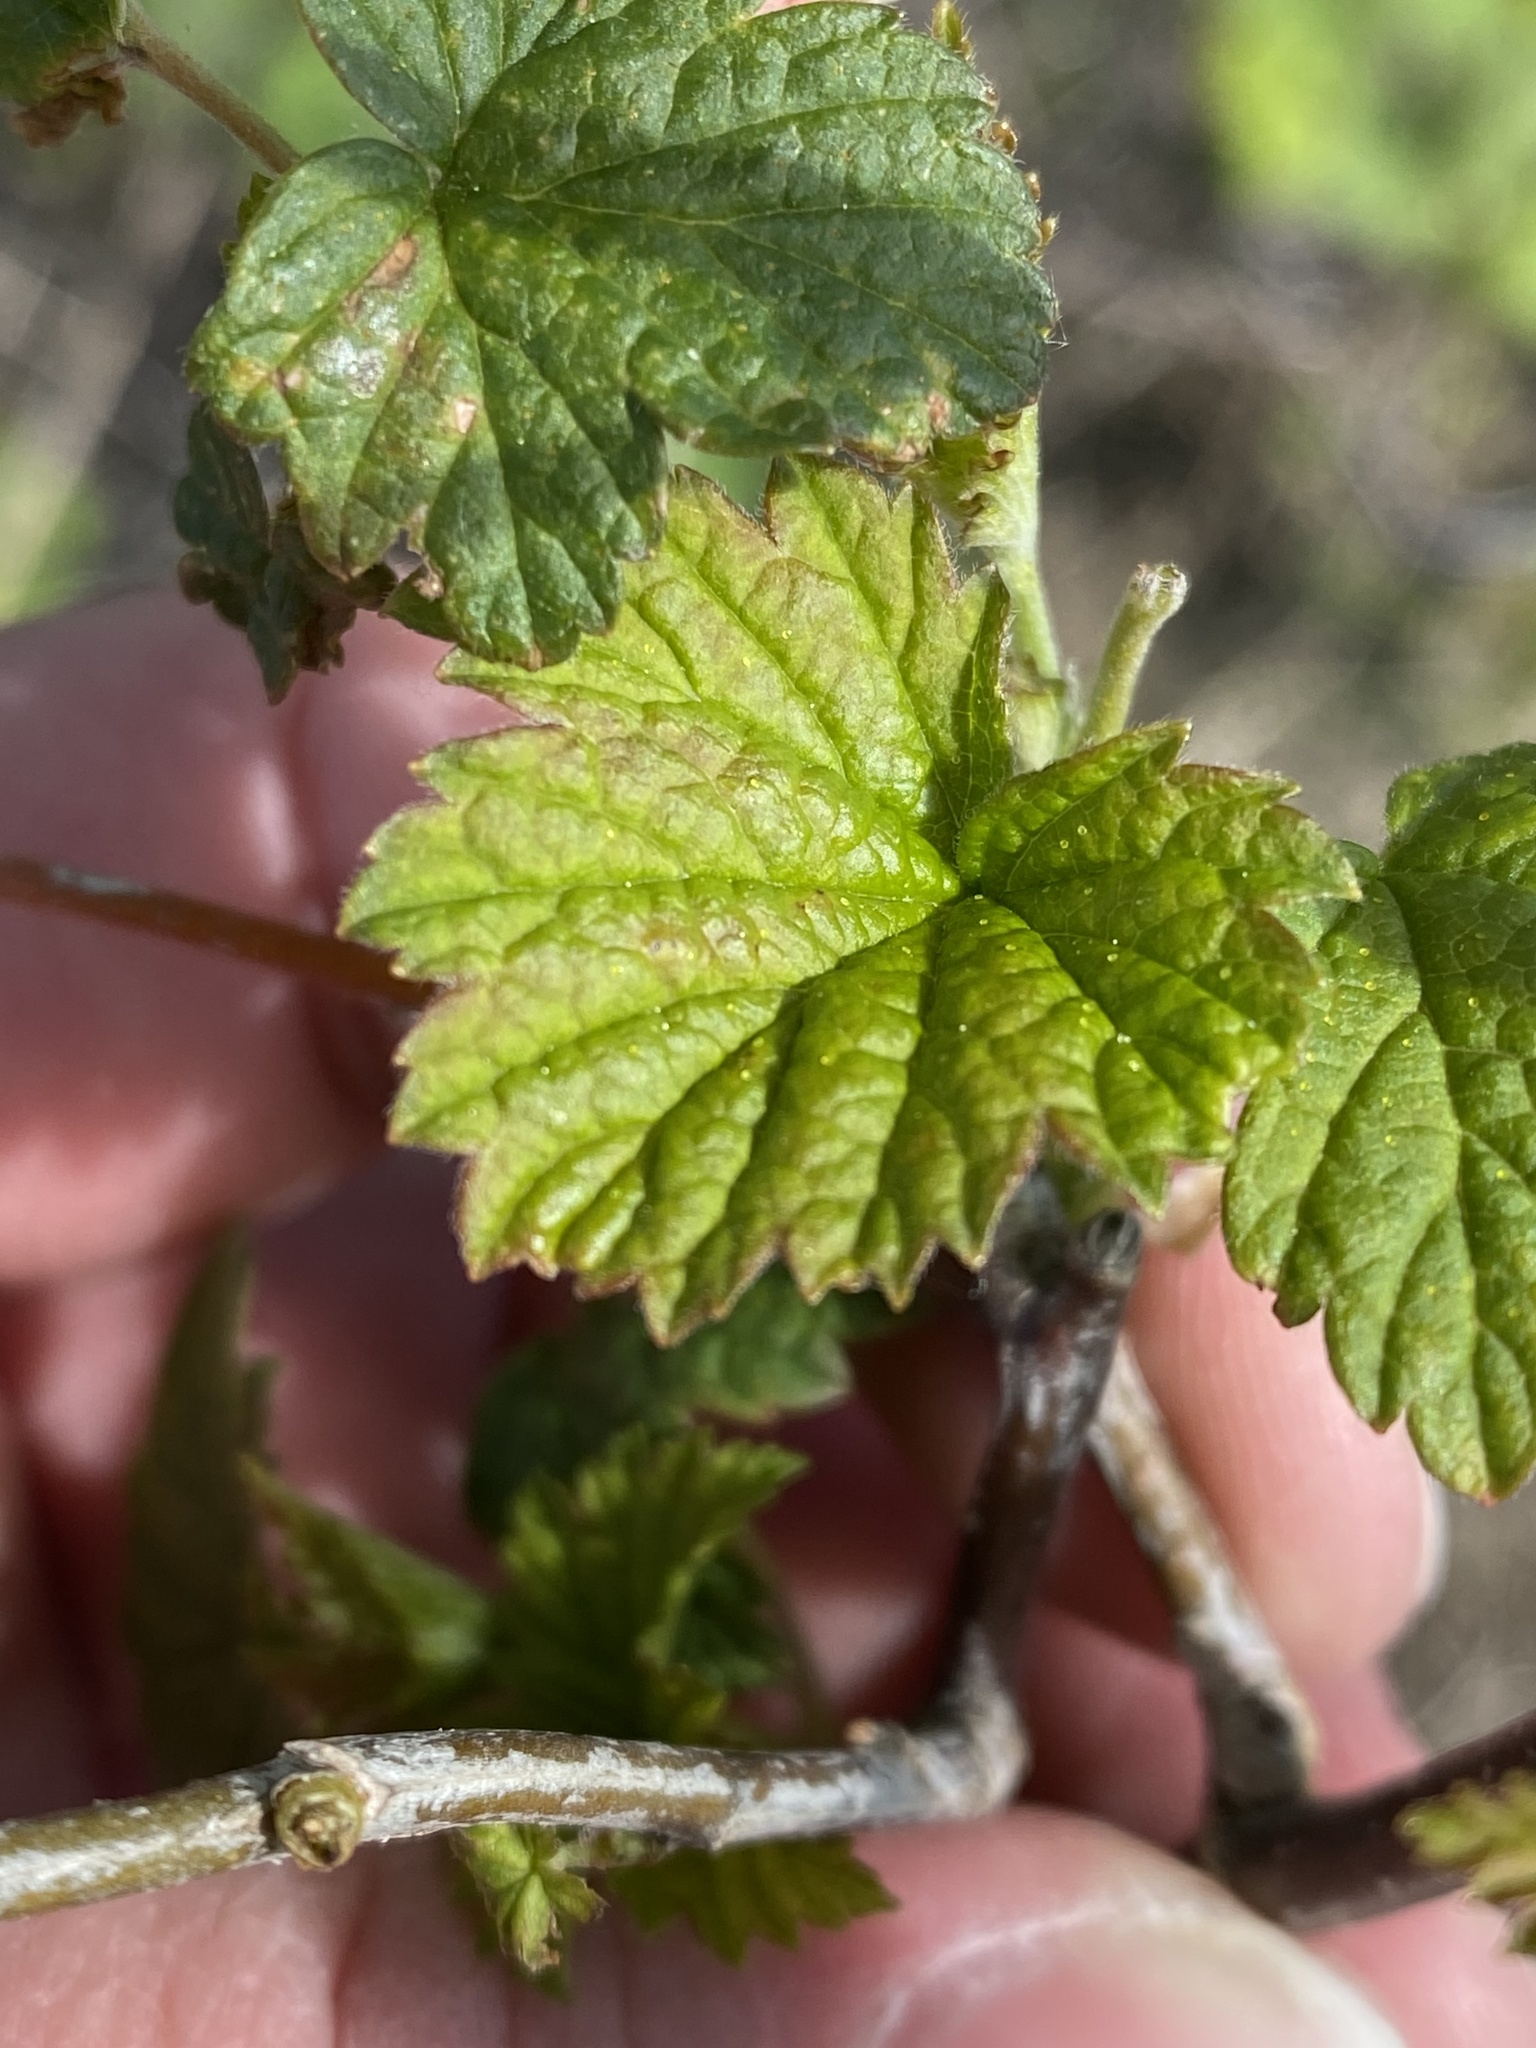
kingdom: Plantae
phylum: Tracheophyta
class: Magnoliopsida
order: Saxifragales
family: Grossulariaceae
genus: Ribes
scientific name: Ribes americanum
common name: American black currant
